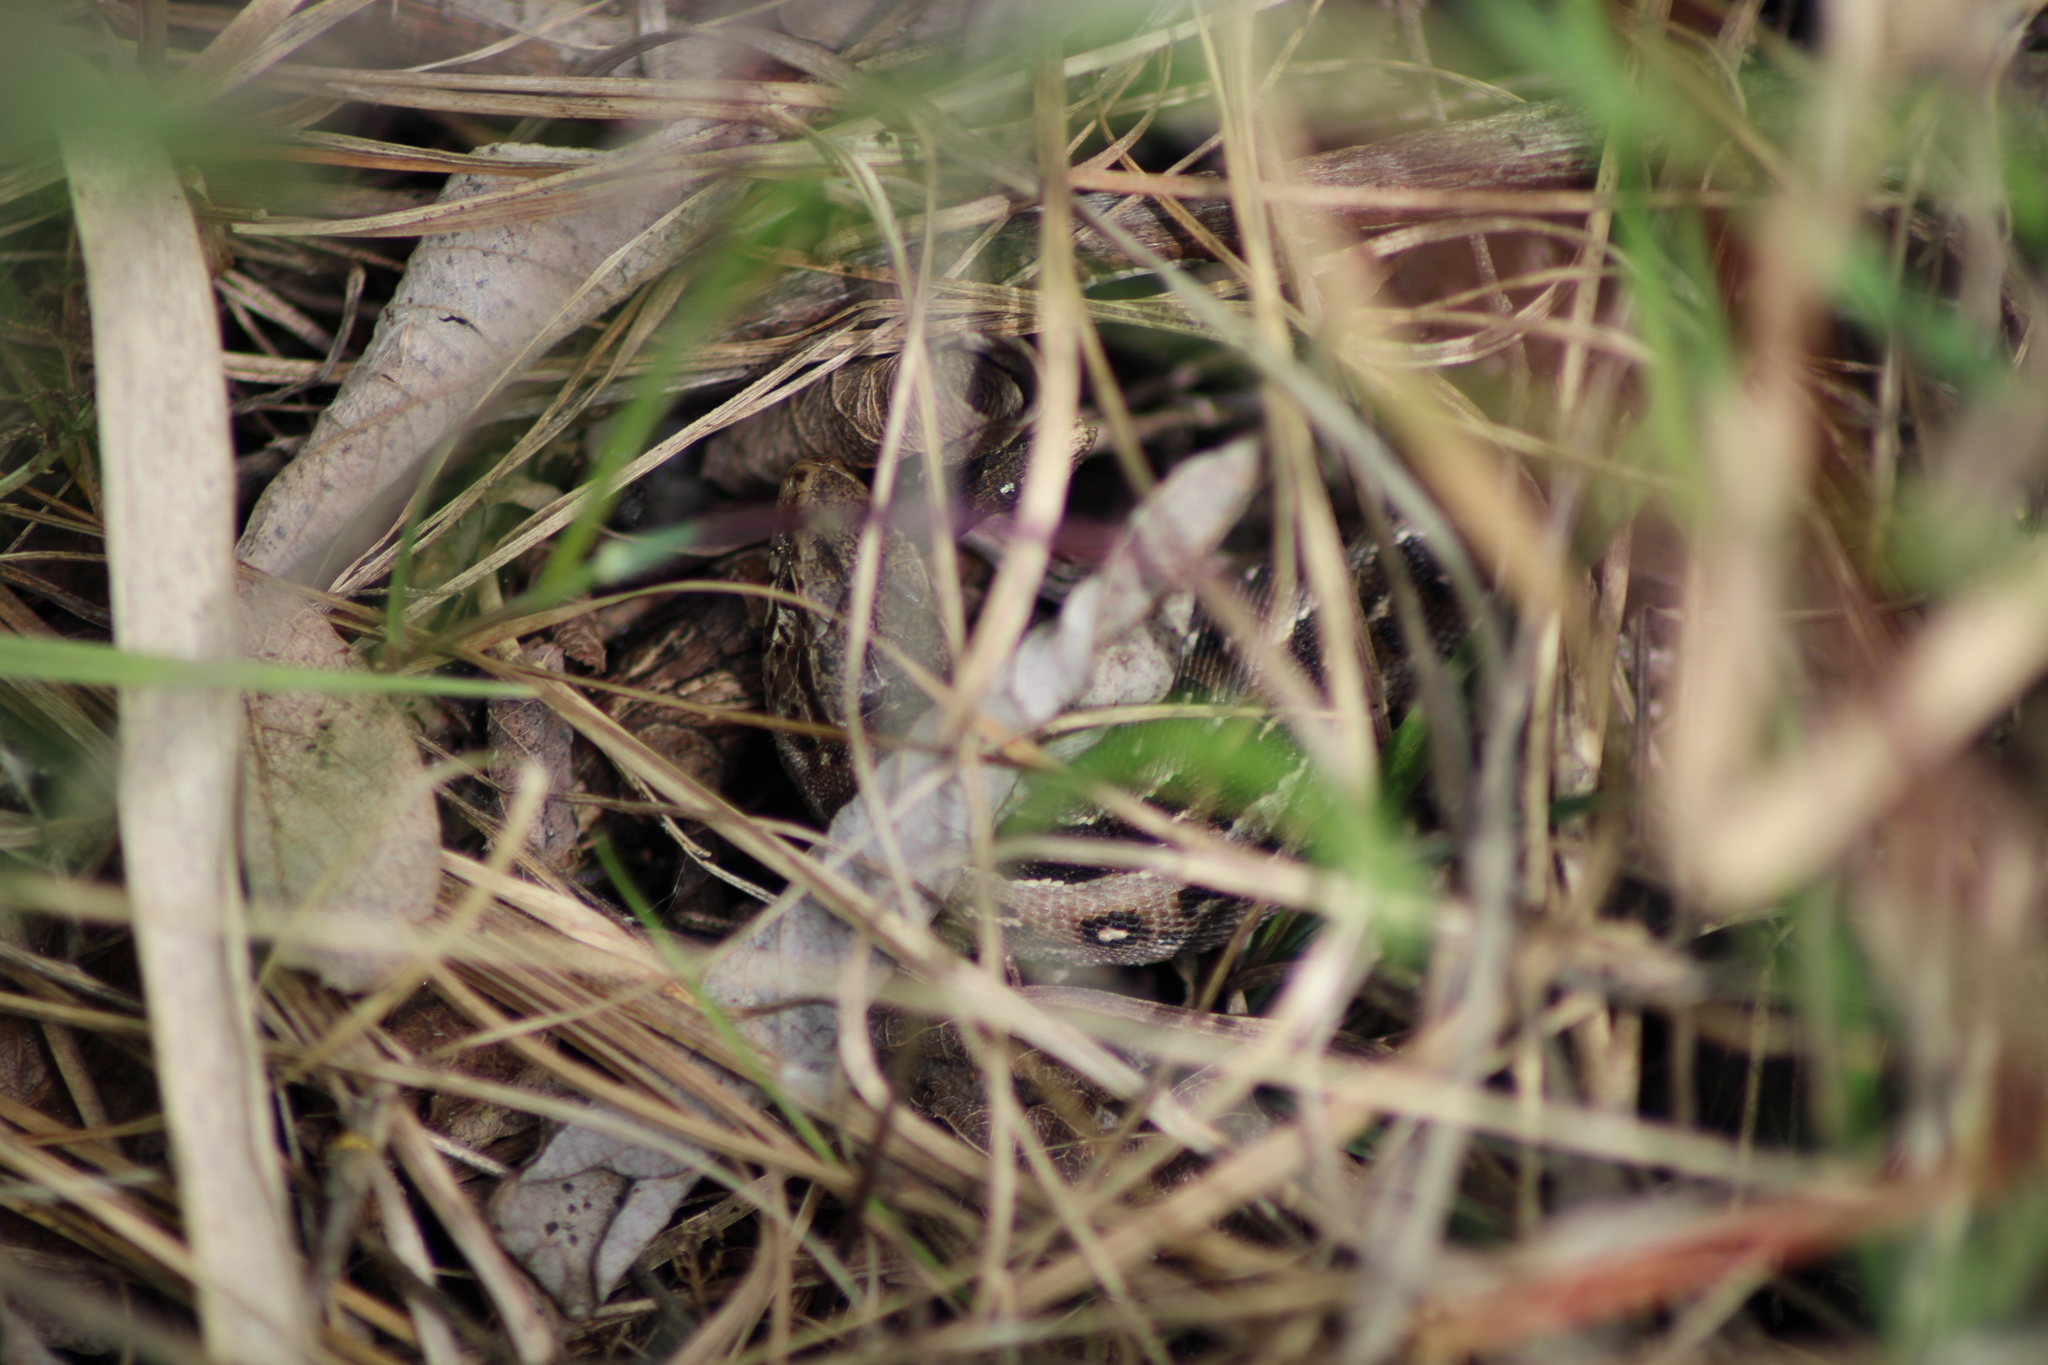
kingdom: Animalia
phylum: Chordata
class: Squamata
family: Lacertidae
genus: Lacerta
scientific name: Lacerta agilis
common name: Sand lizard
